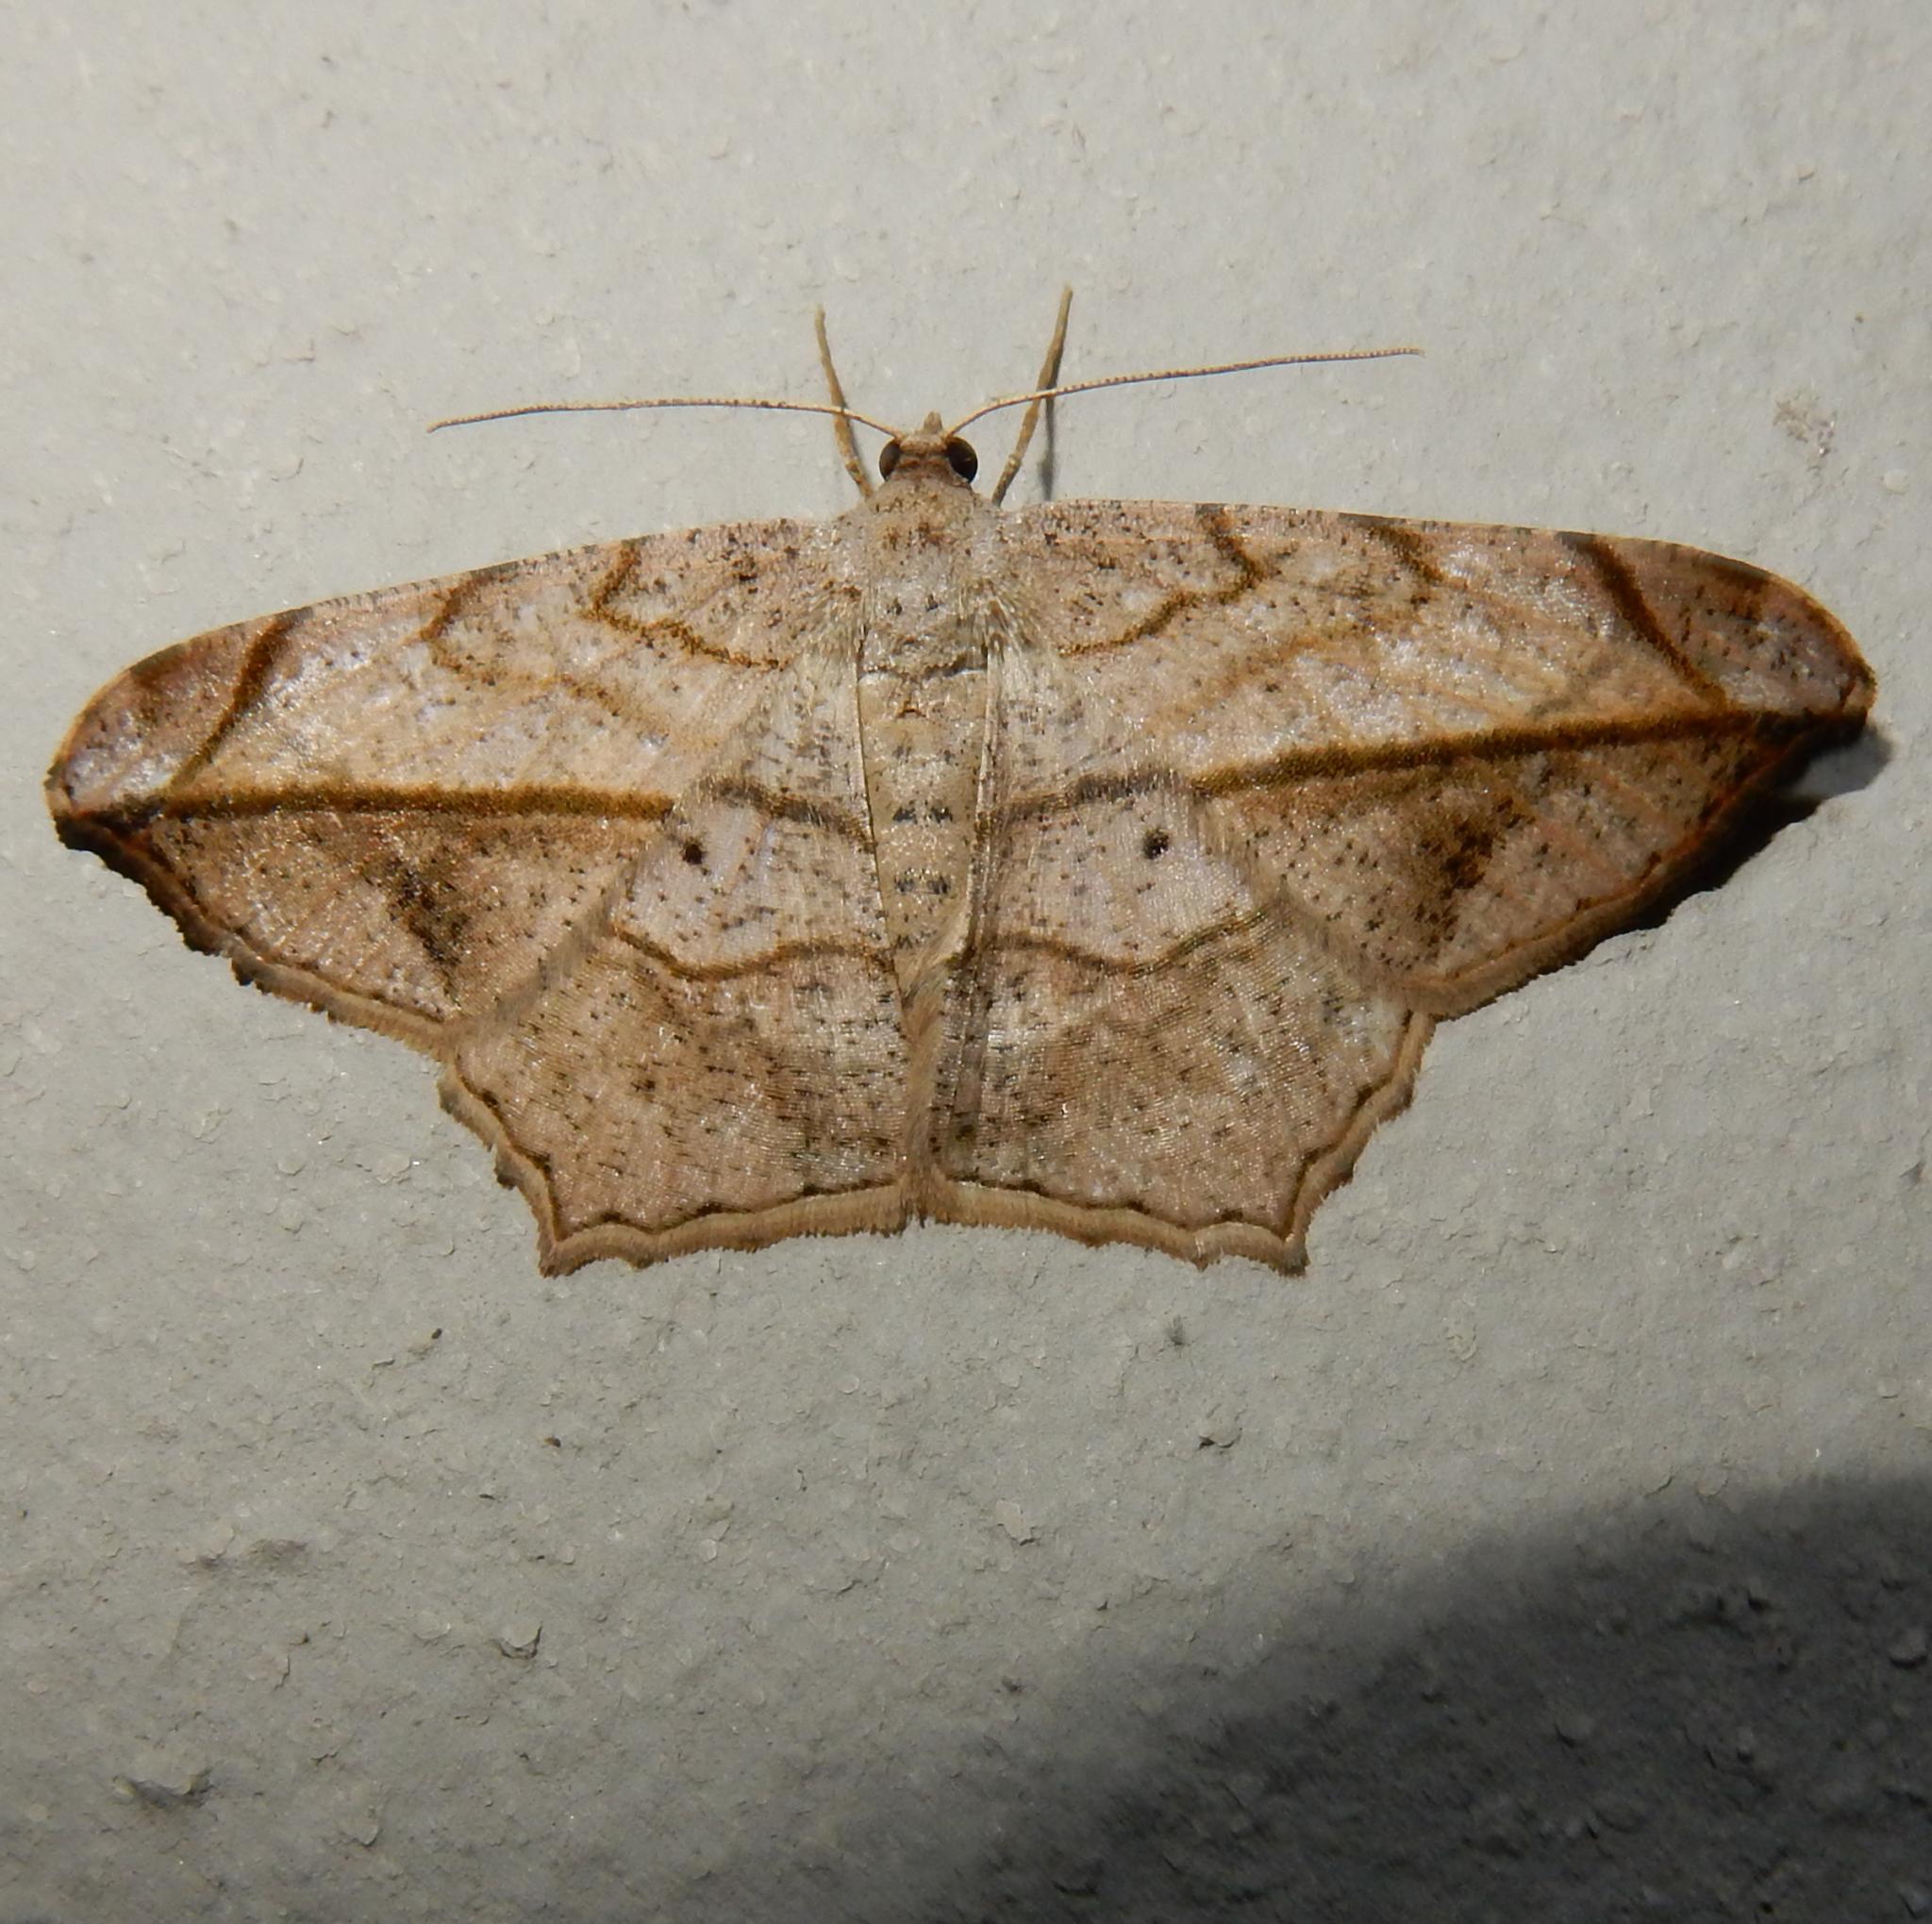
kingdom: Animalia
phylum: Arthropoda
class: Insecta
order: Lepidoptera
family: Geometridae
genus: Chiasmia
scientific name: Chiasmia simplicilinea
